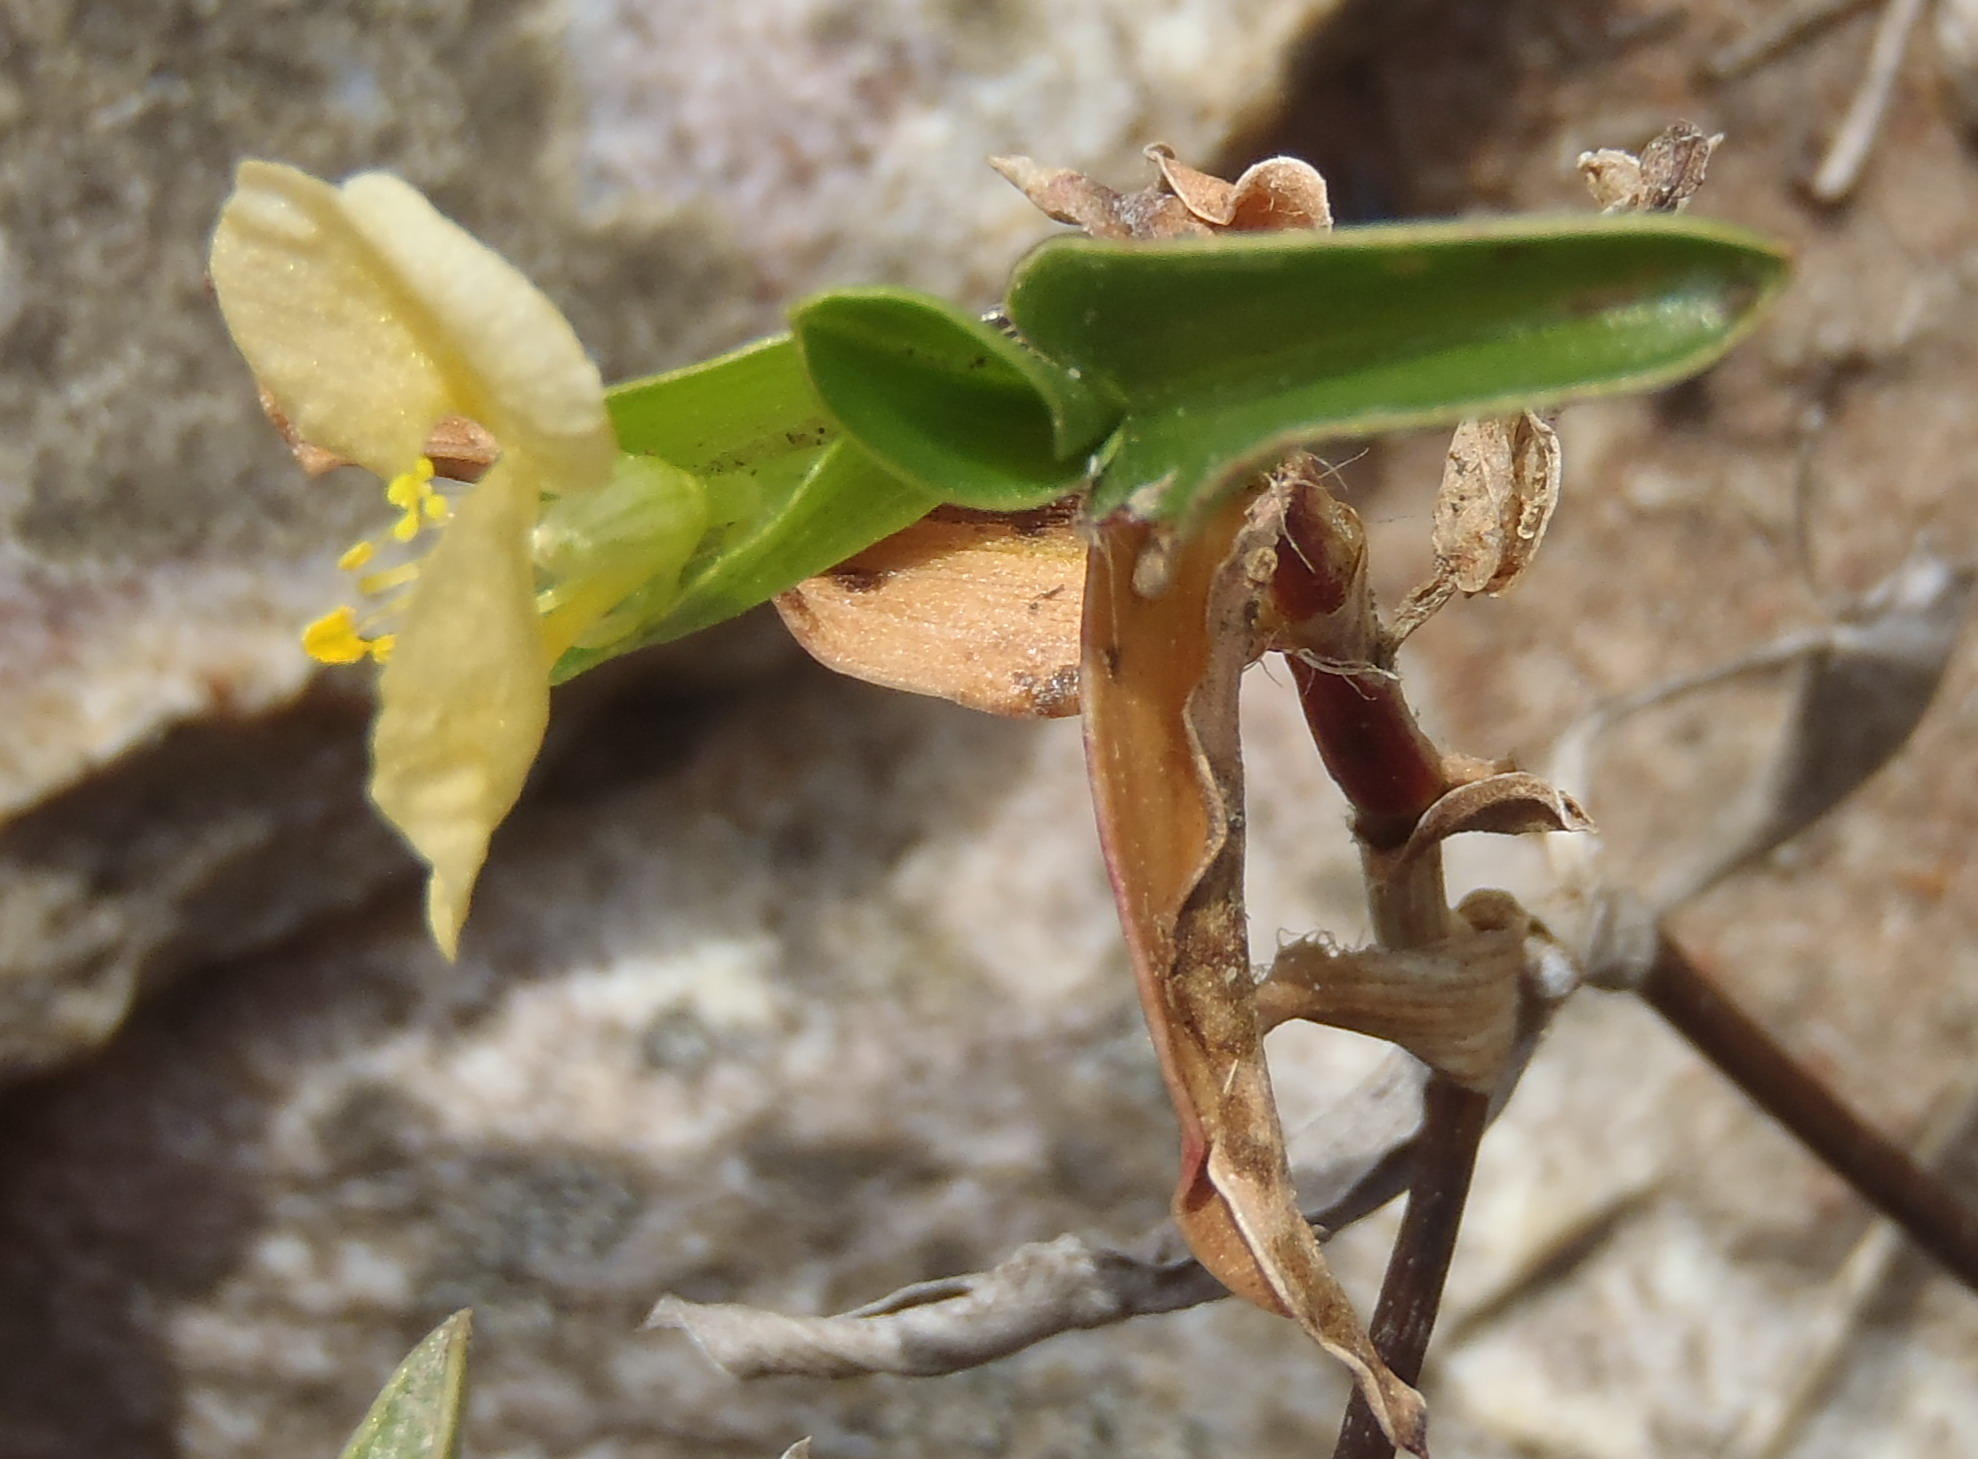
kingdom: Plantae
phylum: Tracheophyta
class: Liliopsida
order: Commelinales
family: Commelinaceae
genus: Commelina
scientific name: Commelina africana
